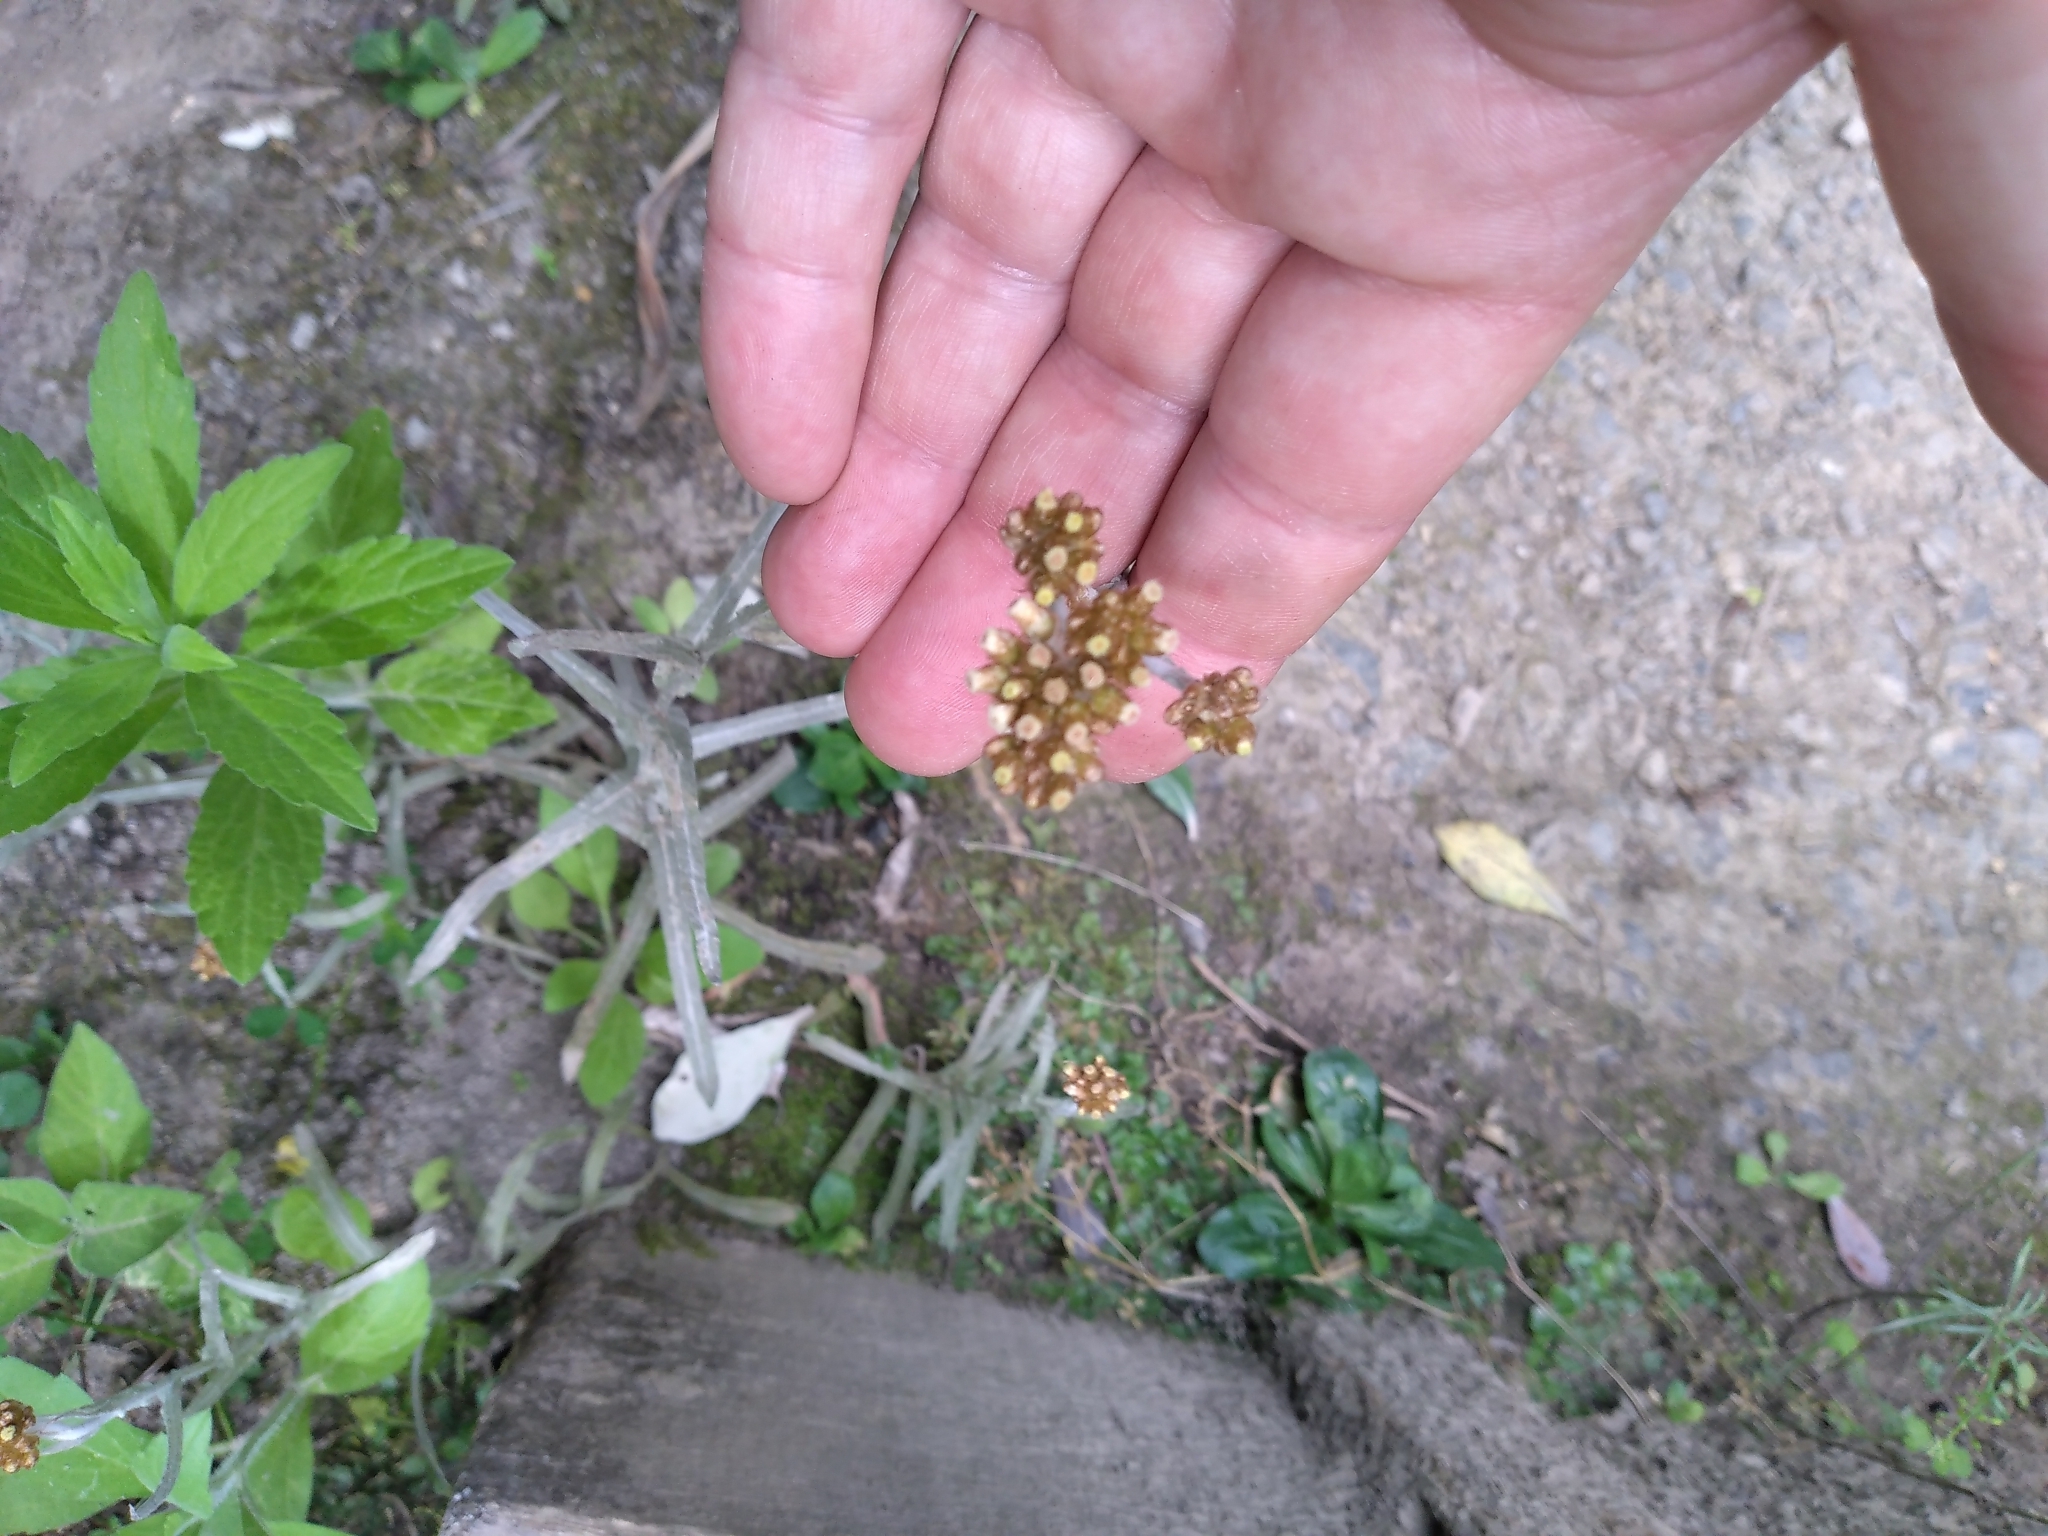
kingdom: Plantae
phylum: Tracheophyta
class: Magnoliopsida
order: Asterales
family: Asteraceae
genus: Pseudognaphalium
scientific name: Pseudognaphalium
